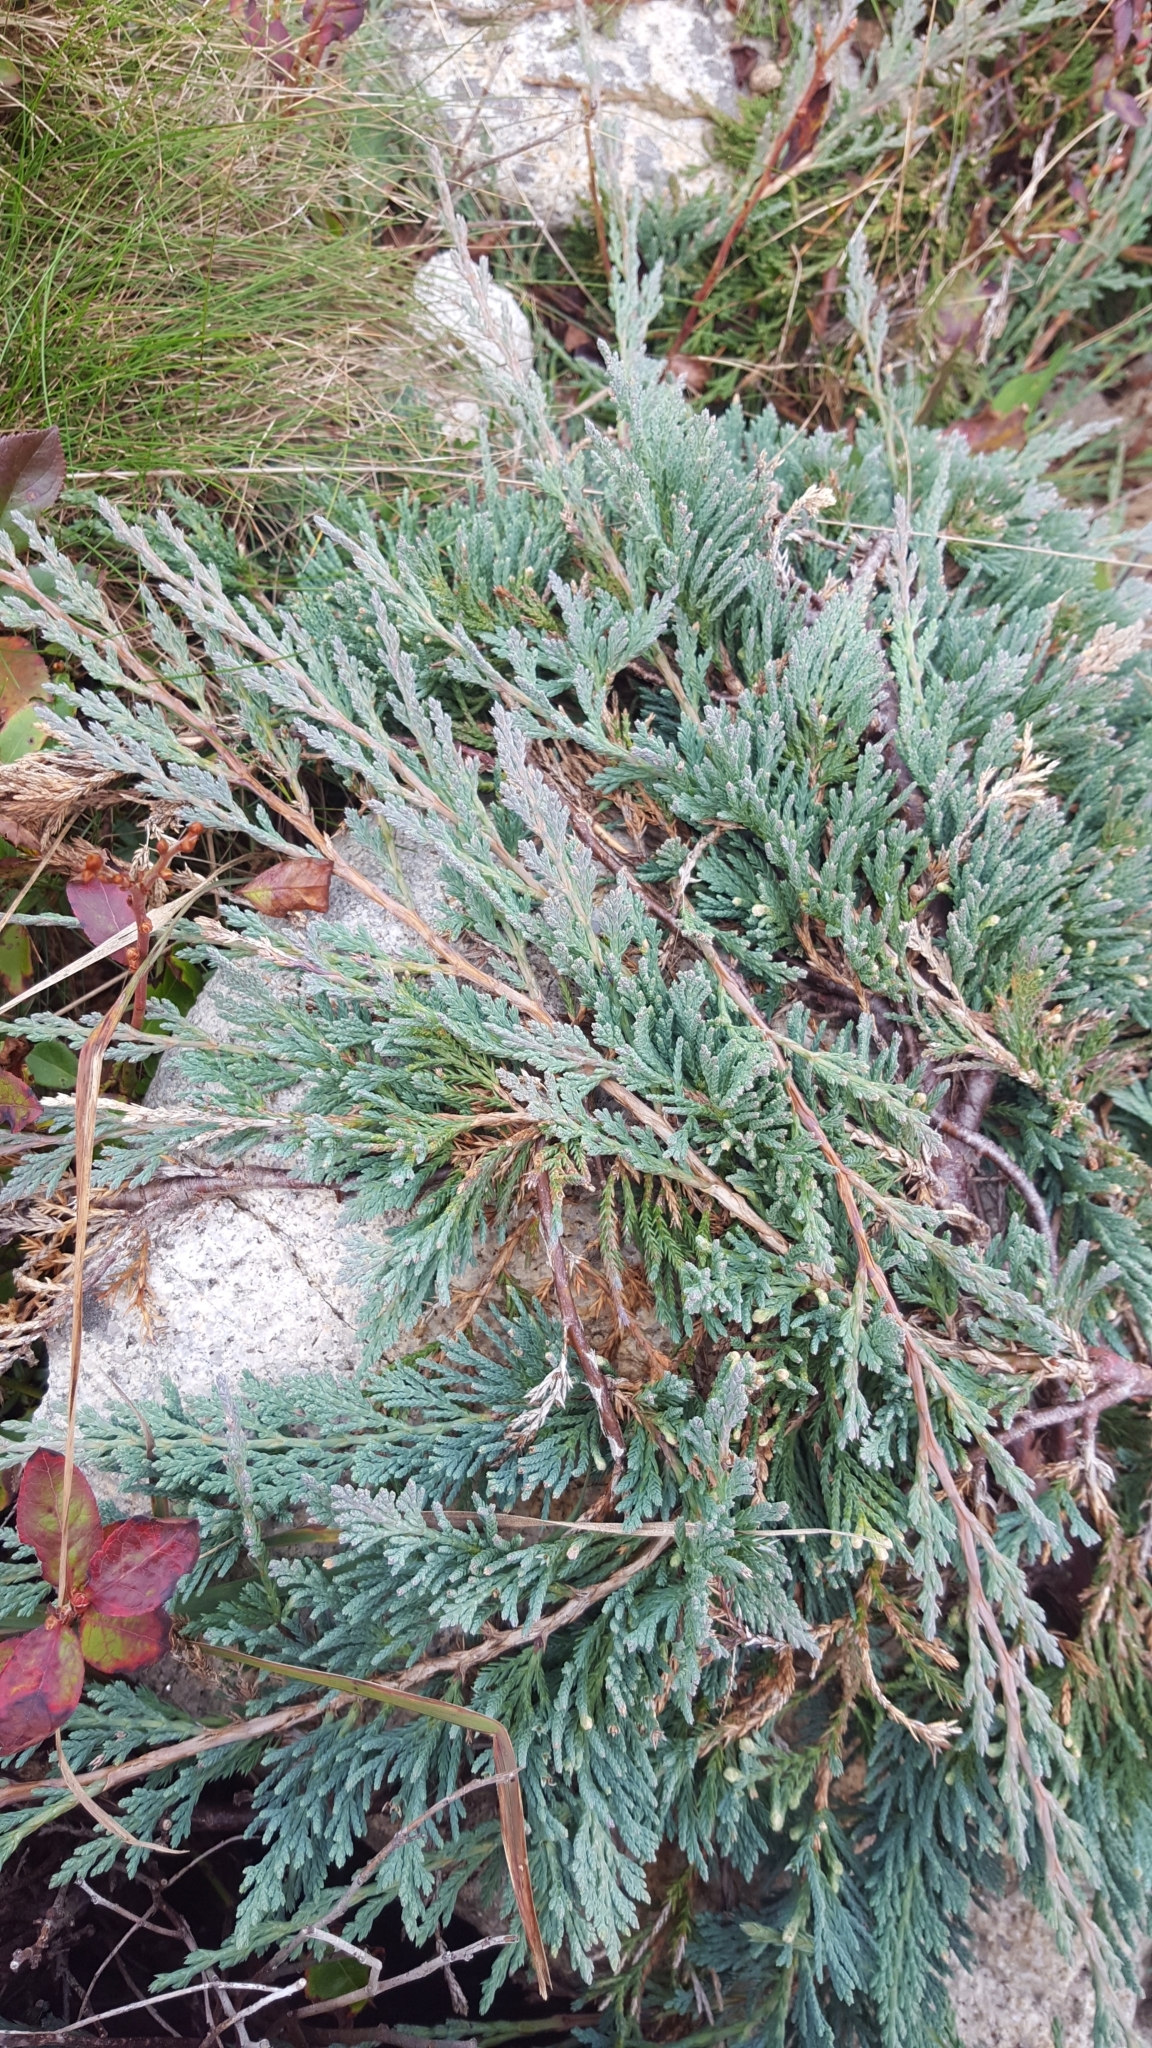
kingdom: Plantae
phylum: Tracheophyta
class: Pinopsida
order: Pinales
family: Cupressaceae
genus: Juniperus
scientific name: Juniperus horizontalis
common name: Creeping juniper
